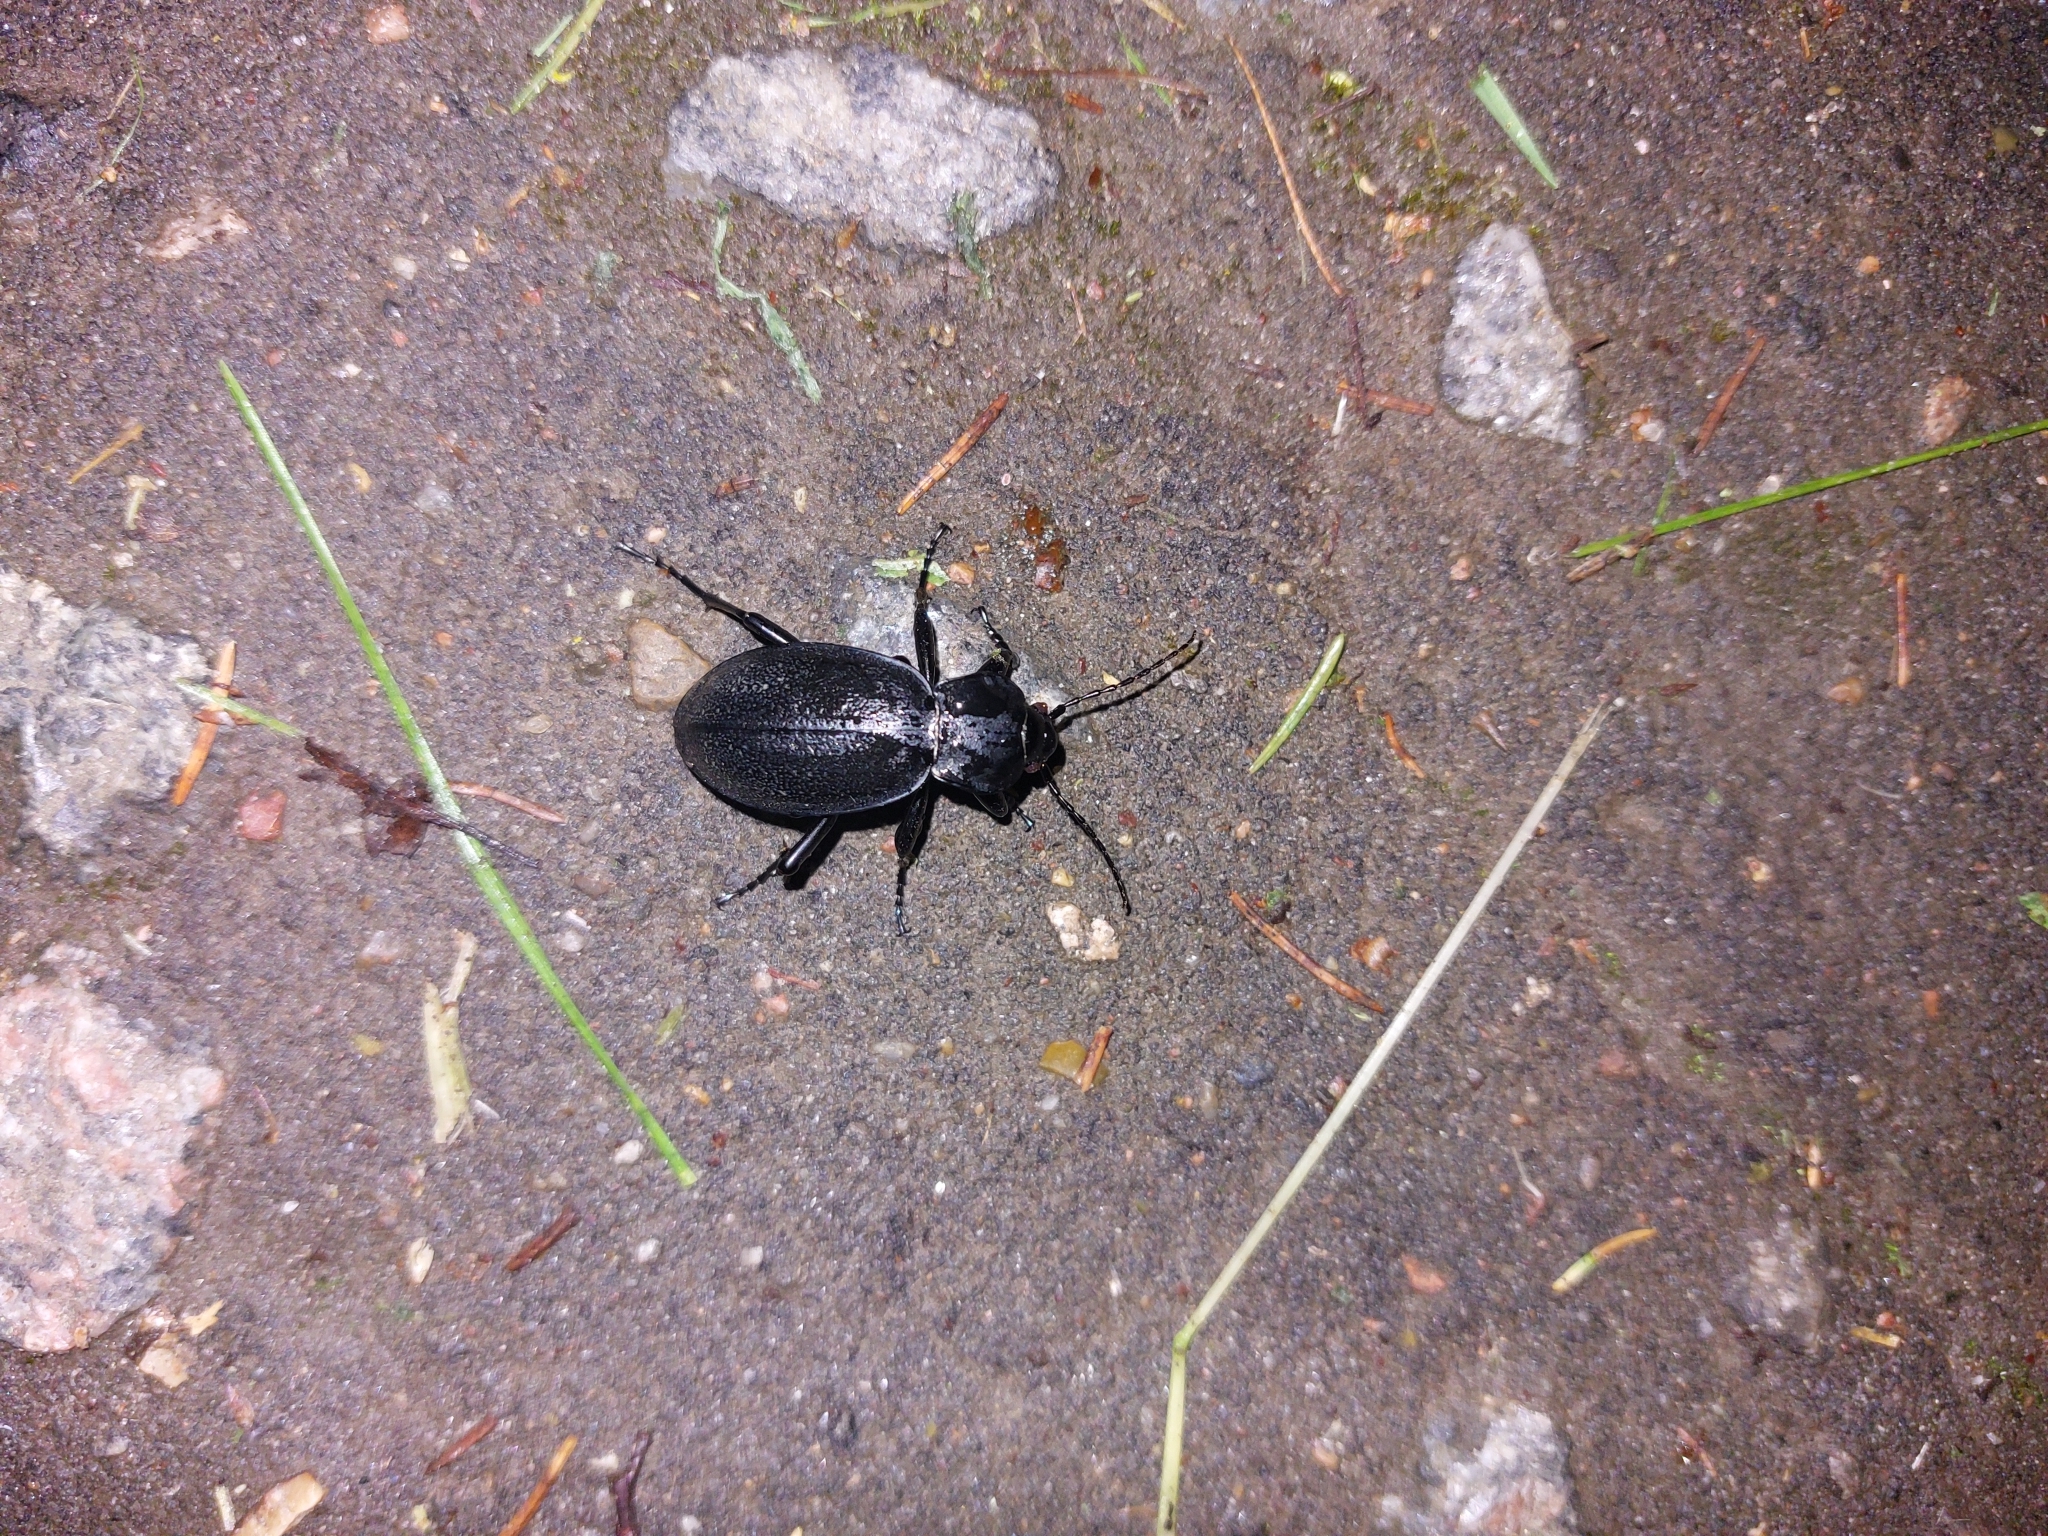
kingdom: Animalia
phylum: Arthropoda
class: Insecta
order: Coleoptera
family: Carabidae
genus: Carabus
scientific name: Carabus coriaceus
